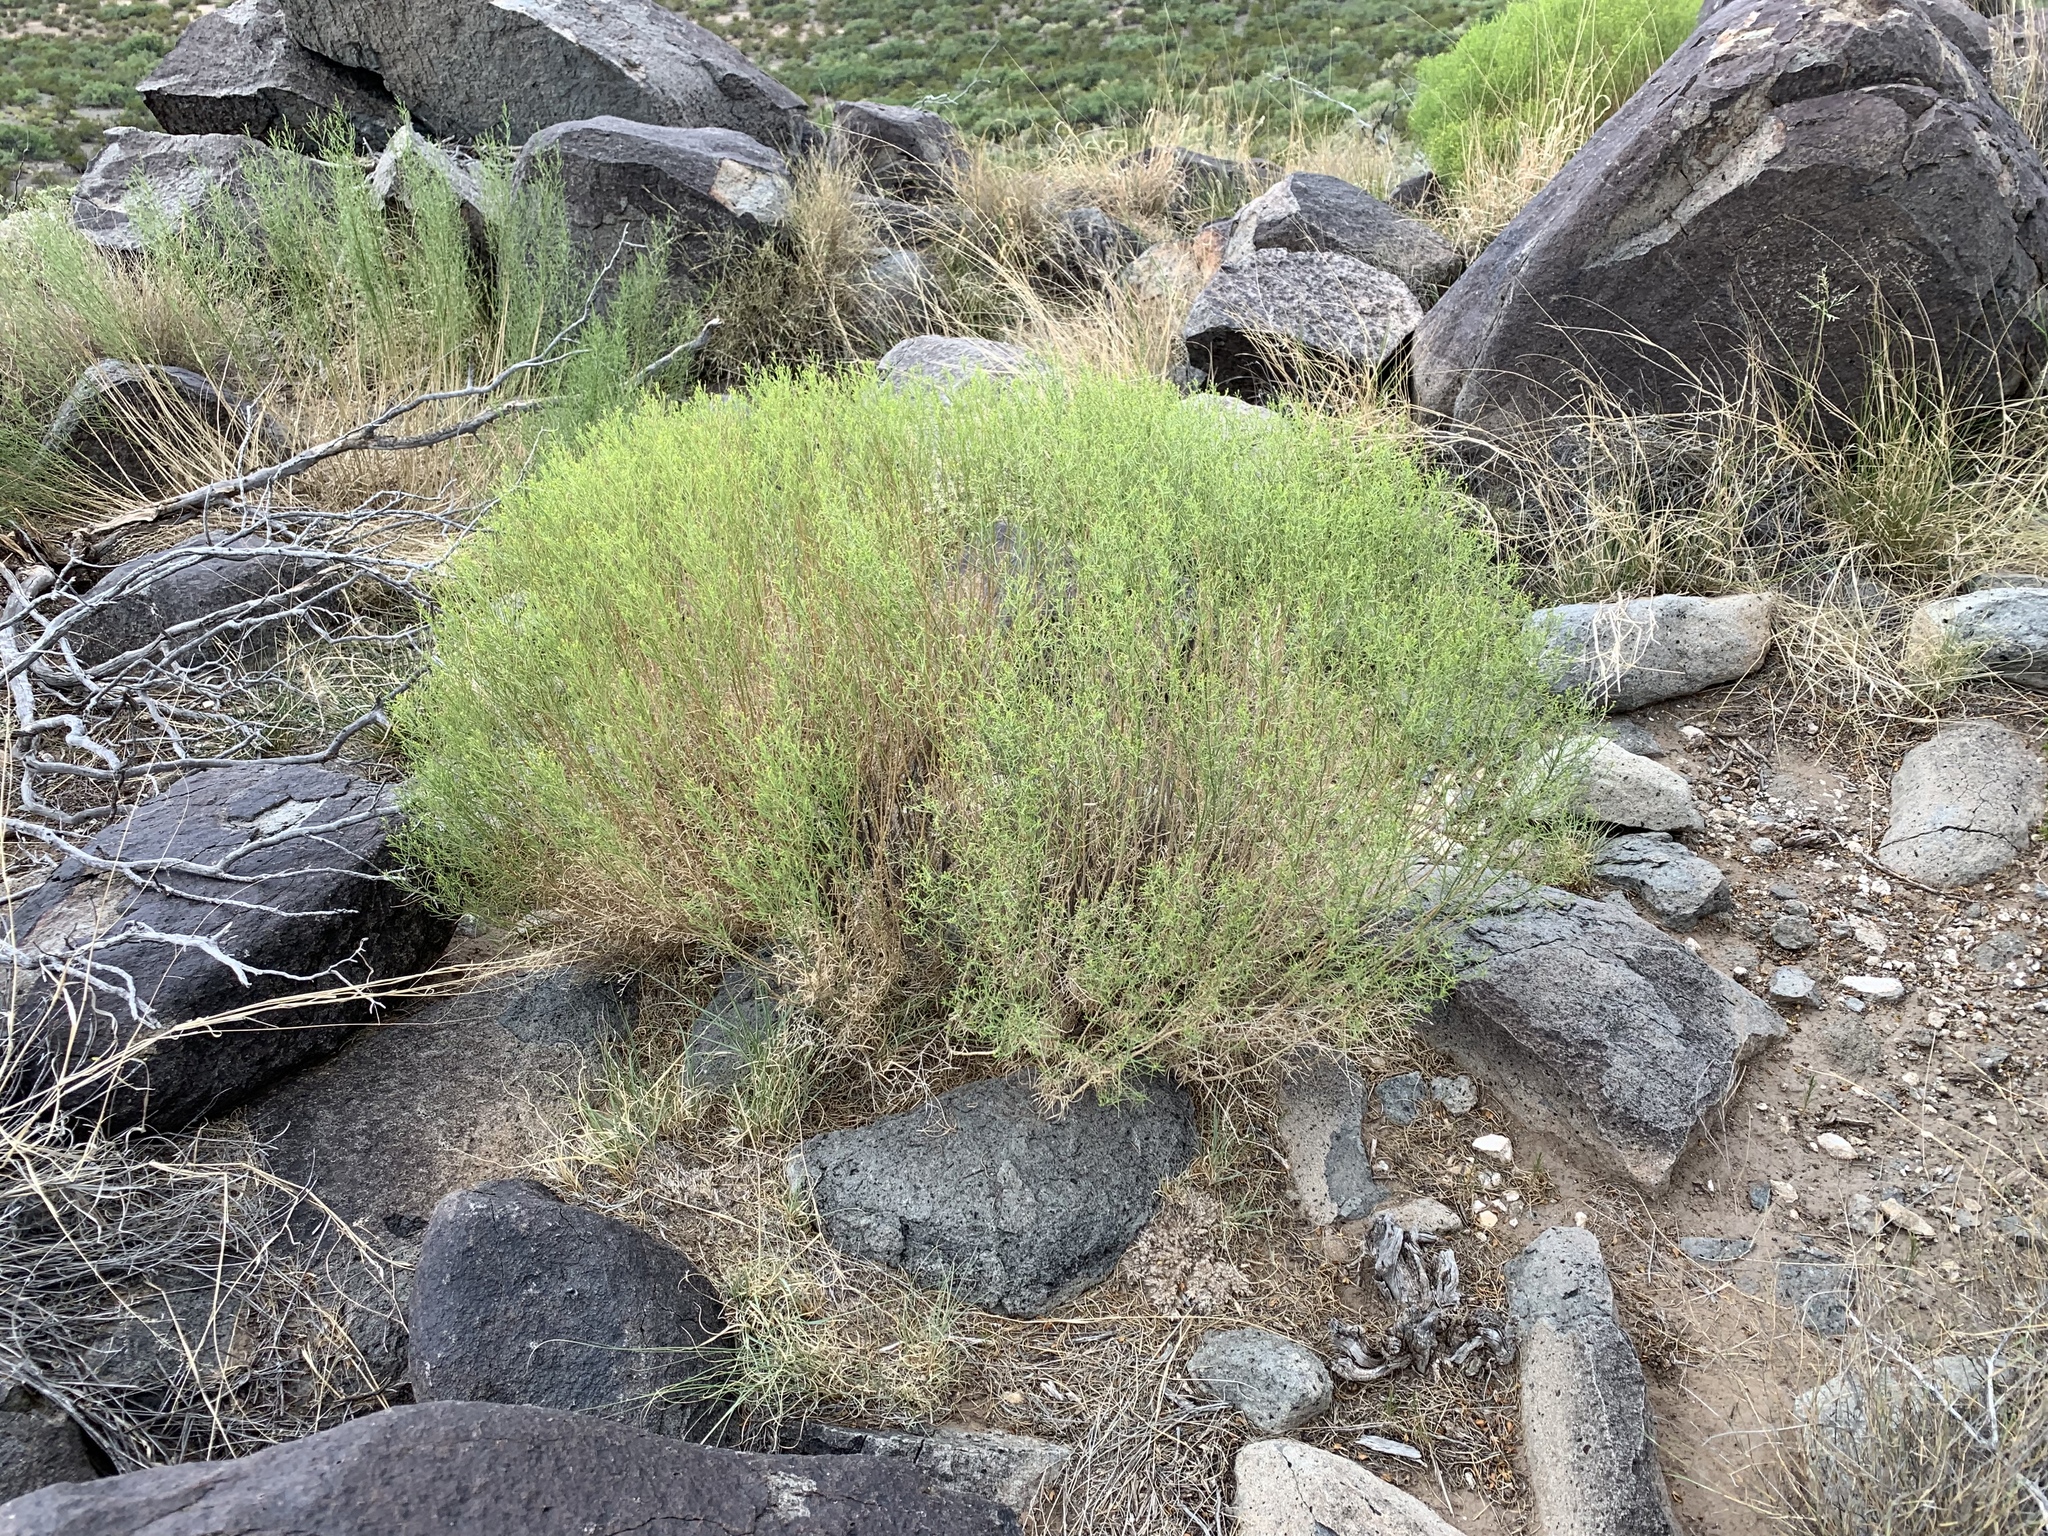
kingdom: Plantae
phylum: Tracheophyta
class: Magnoliopsida
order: Asterales
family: Asteraceae
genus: Gutierrezia
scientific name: Gutierrezia sarothrae
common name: Broom snakeweed
